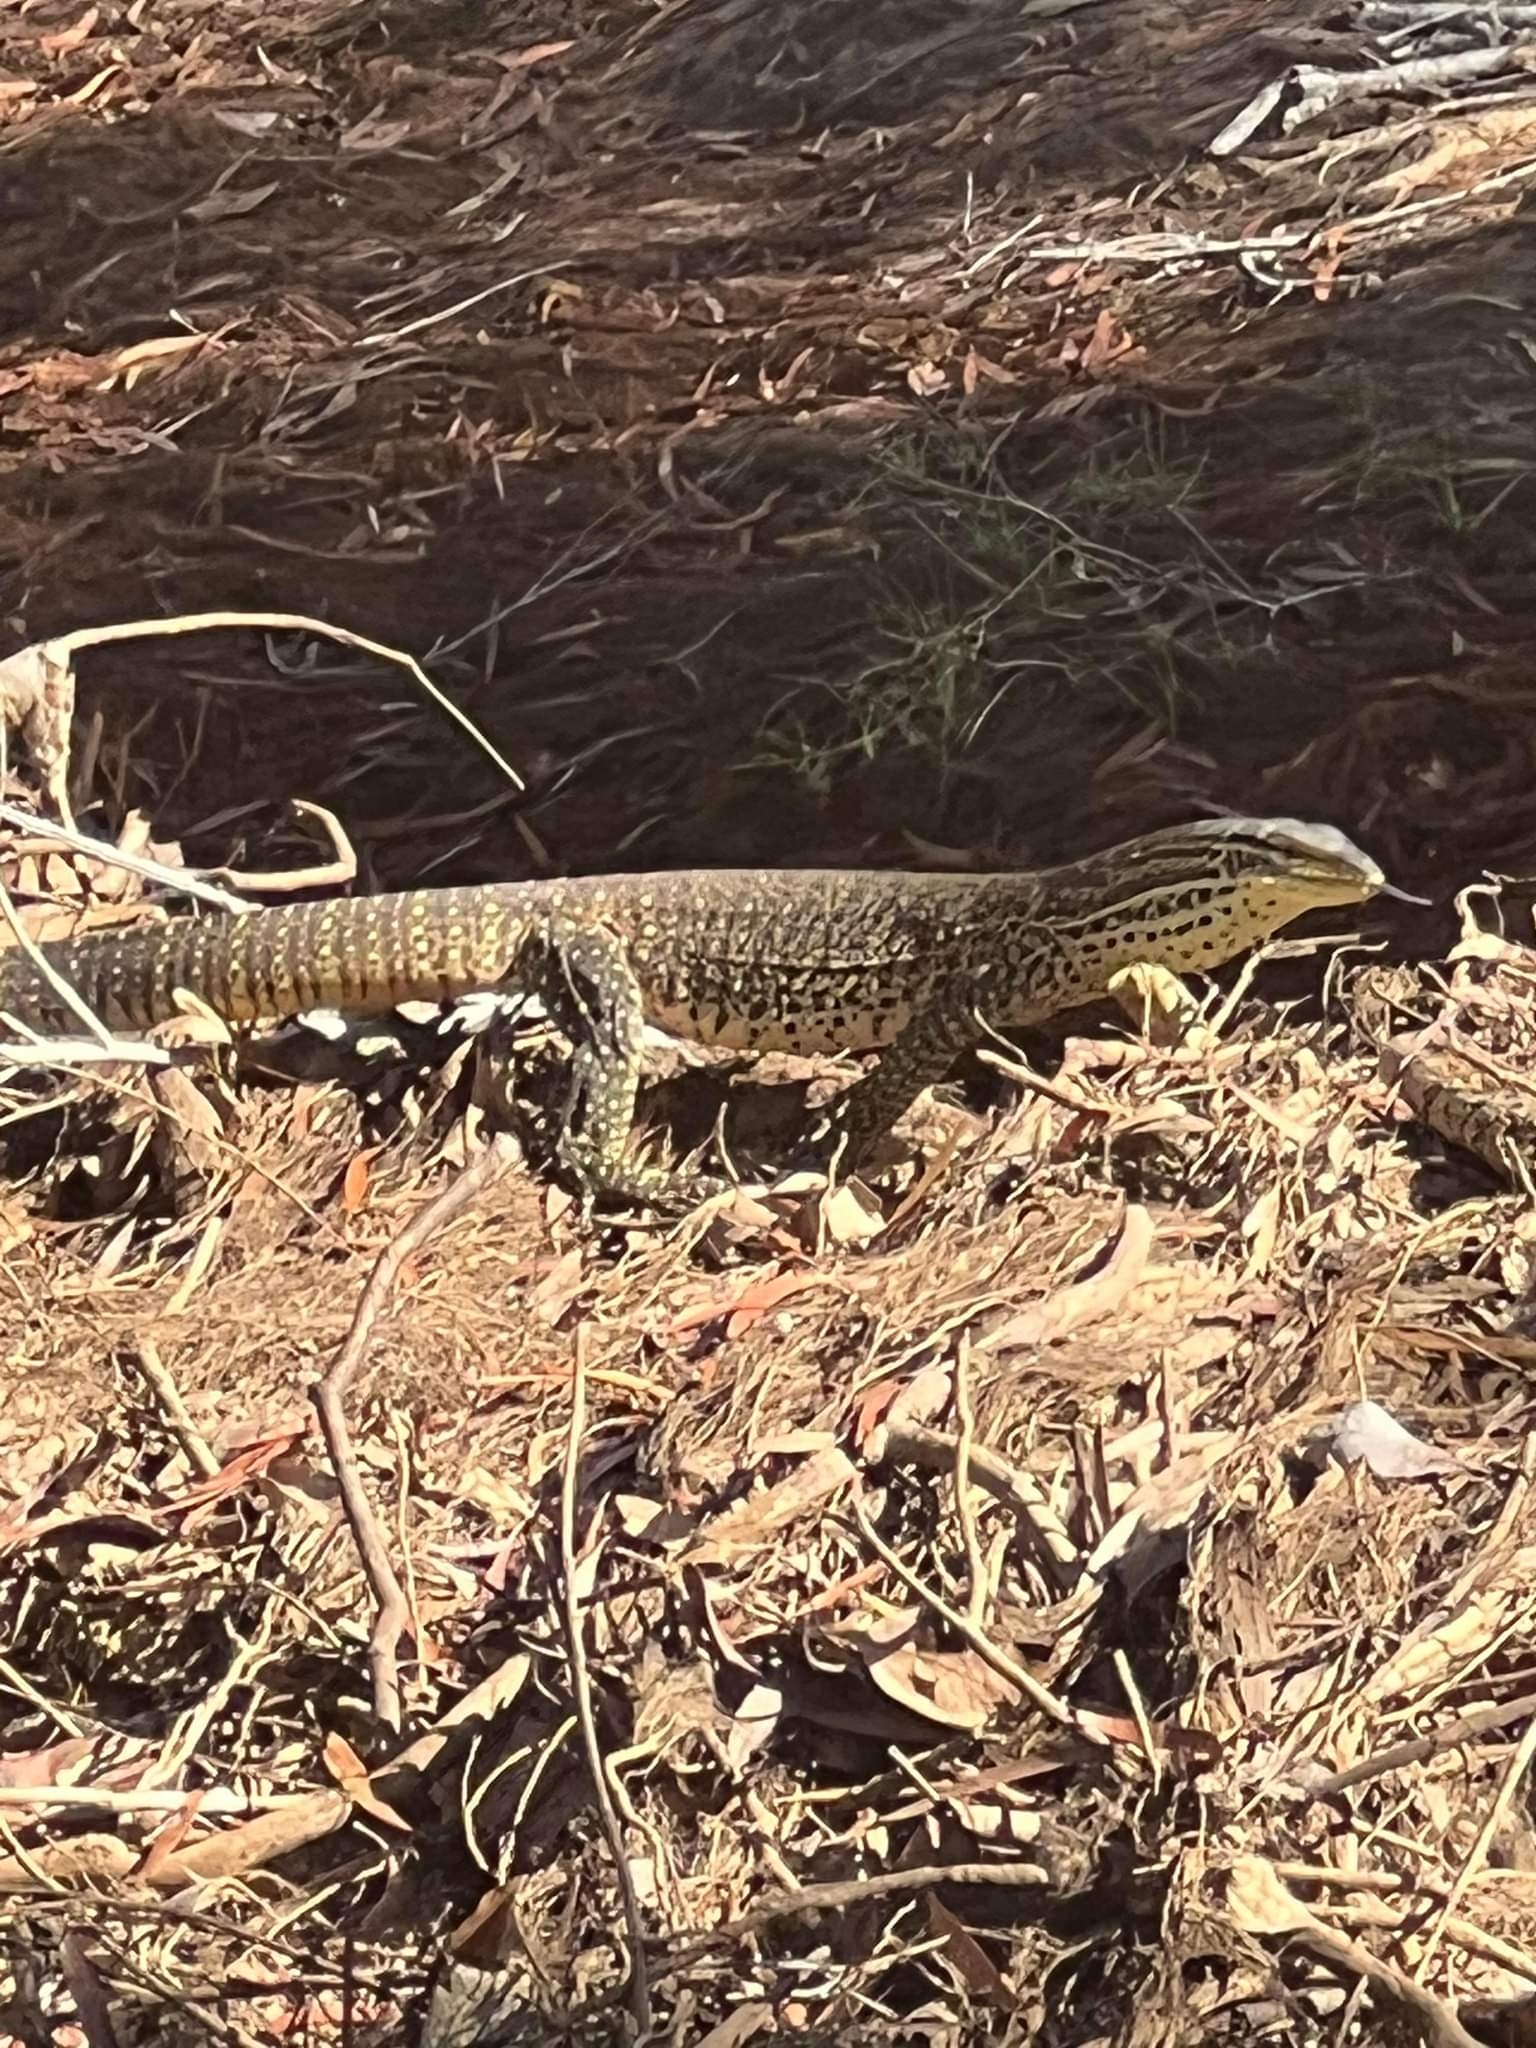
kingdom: Animalia
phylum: Chordata
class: Squamata
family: Varanidae
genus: Varanus
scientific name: Varanus panoptes
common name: Yellow-spotted monitor
